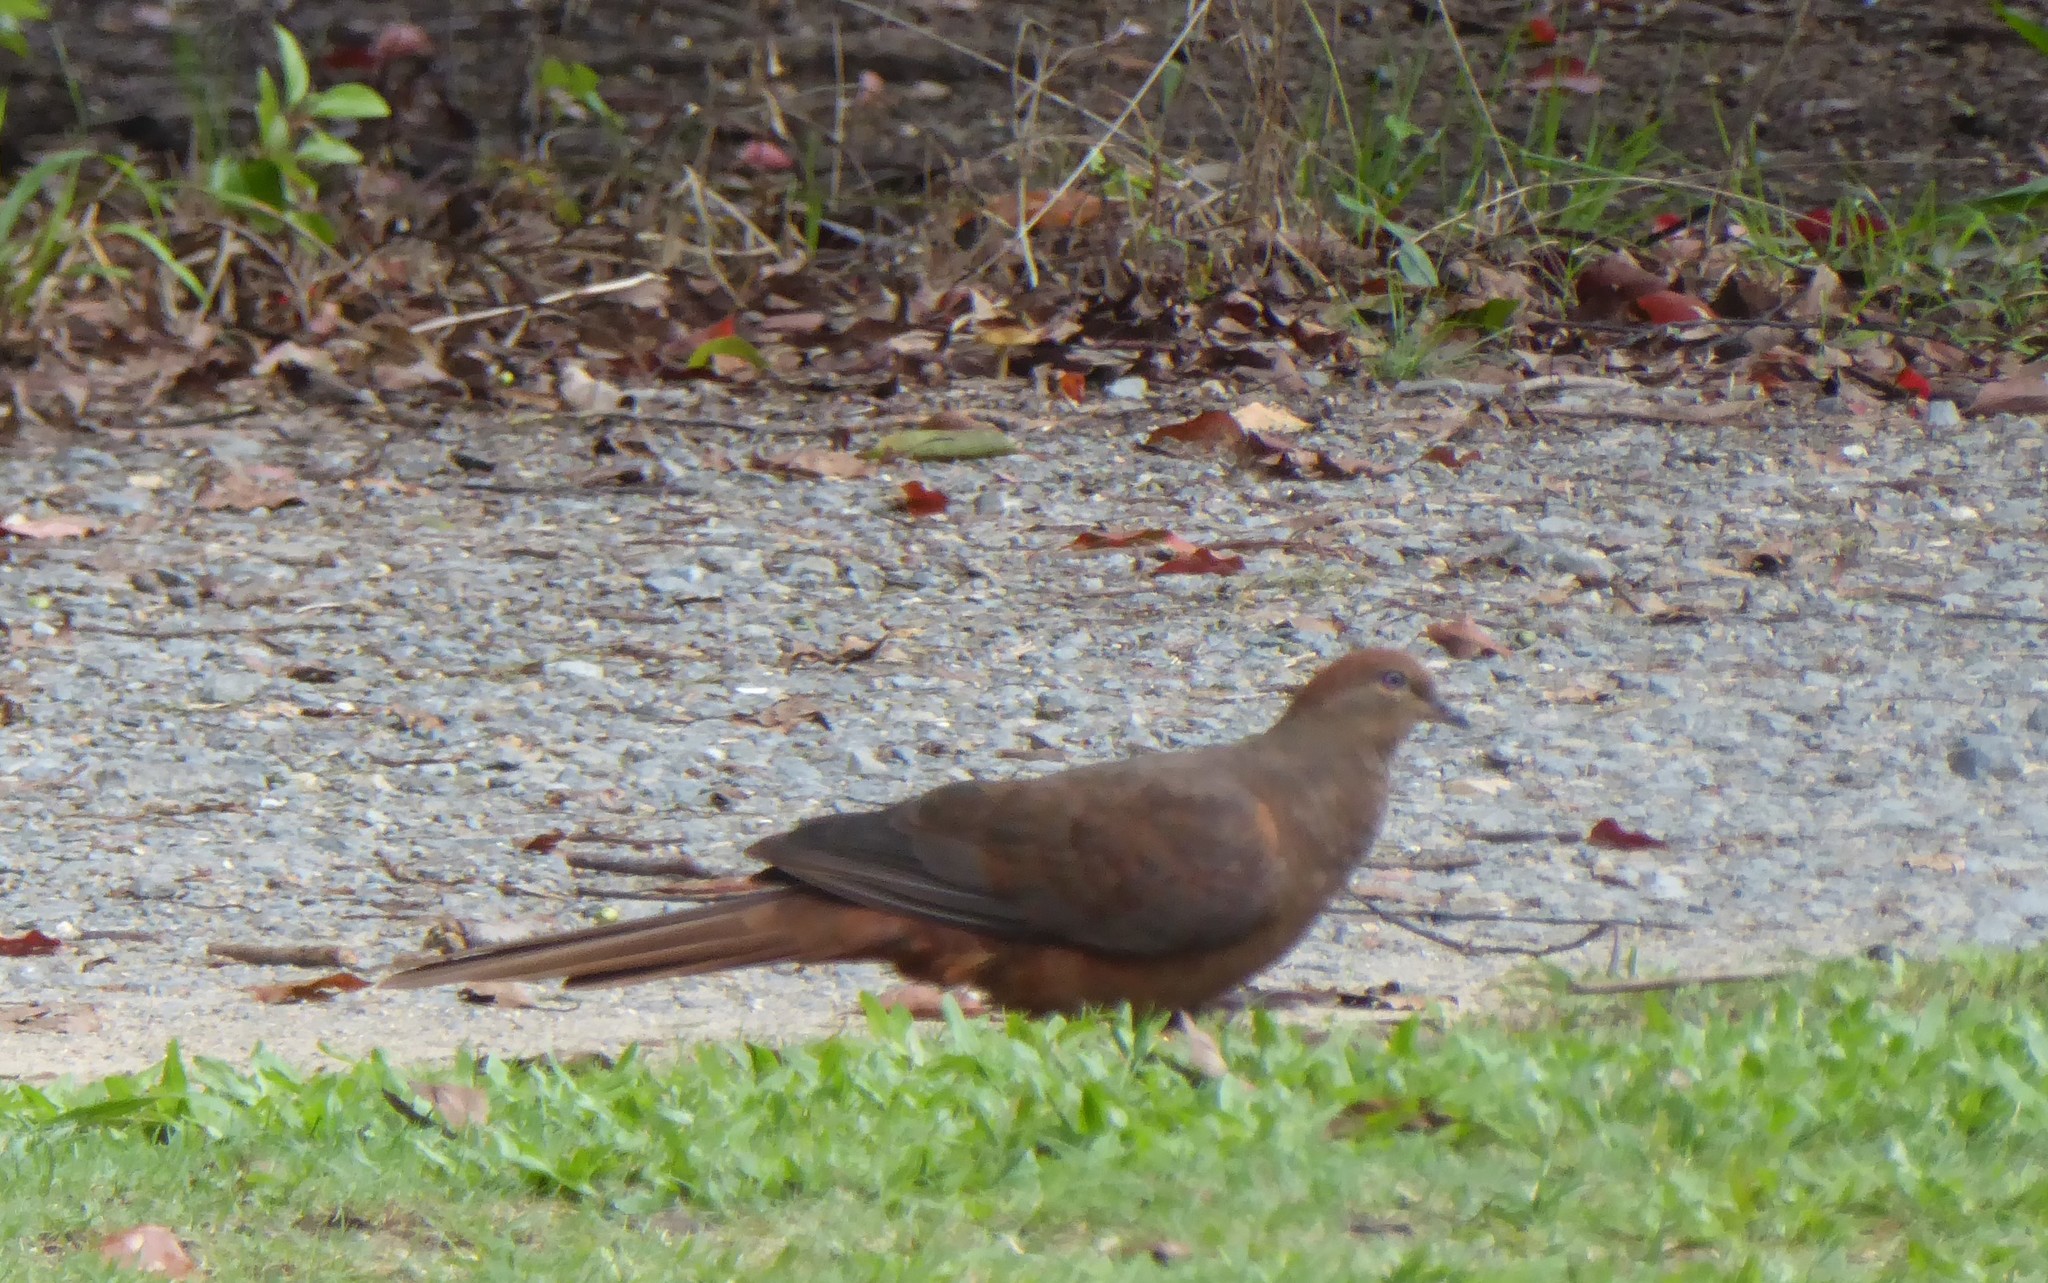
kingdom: Animalia
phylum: Chordata
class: Aves
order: Columbiformes
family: Columbidae
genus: Macropygia
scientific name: Macropygia phasianella
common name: Brown cuckoo-dove
